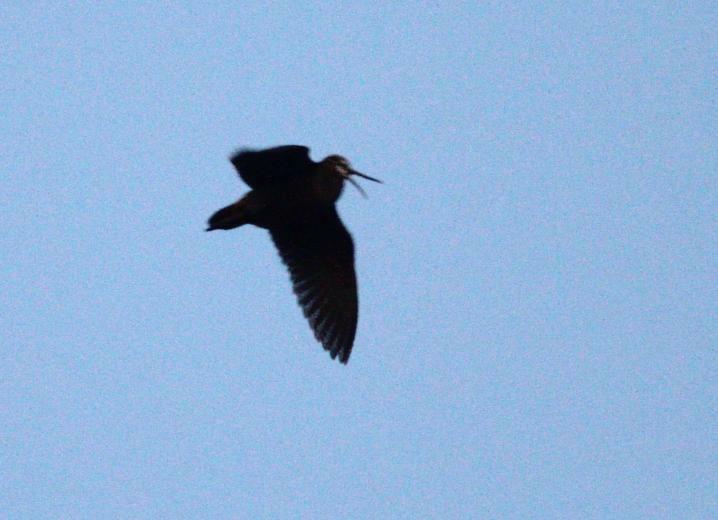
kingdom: Animalia
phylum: Chordata
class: Aves
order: Charadriiformes
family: Scolopacidae
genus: Scolopax
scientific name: Scolopax rusticola
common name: Eurasian woodcock
